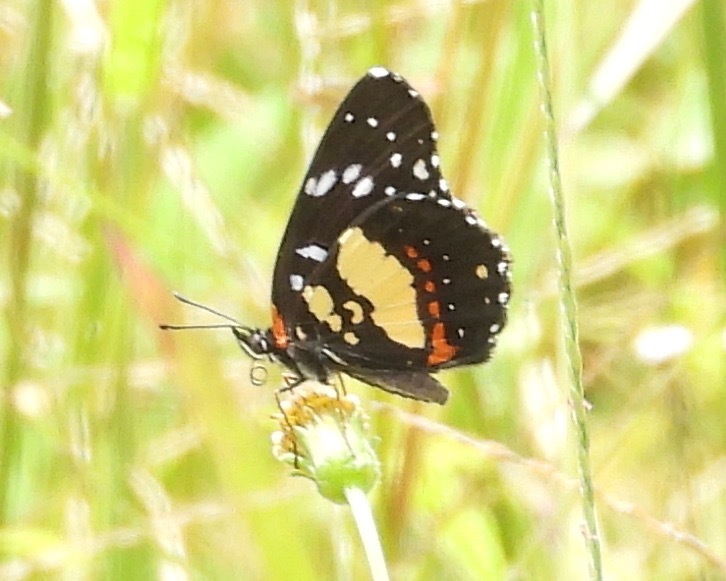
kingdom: Animalia
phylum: Arthropoda
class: Insecta
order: Lepidoptera
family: Nymphalidae
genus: Chlosyne
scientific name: Chlosyne lacinia
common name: Bordered patch
